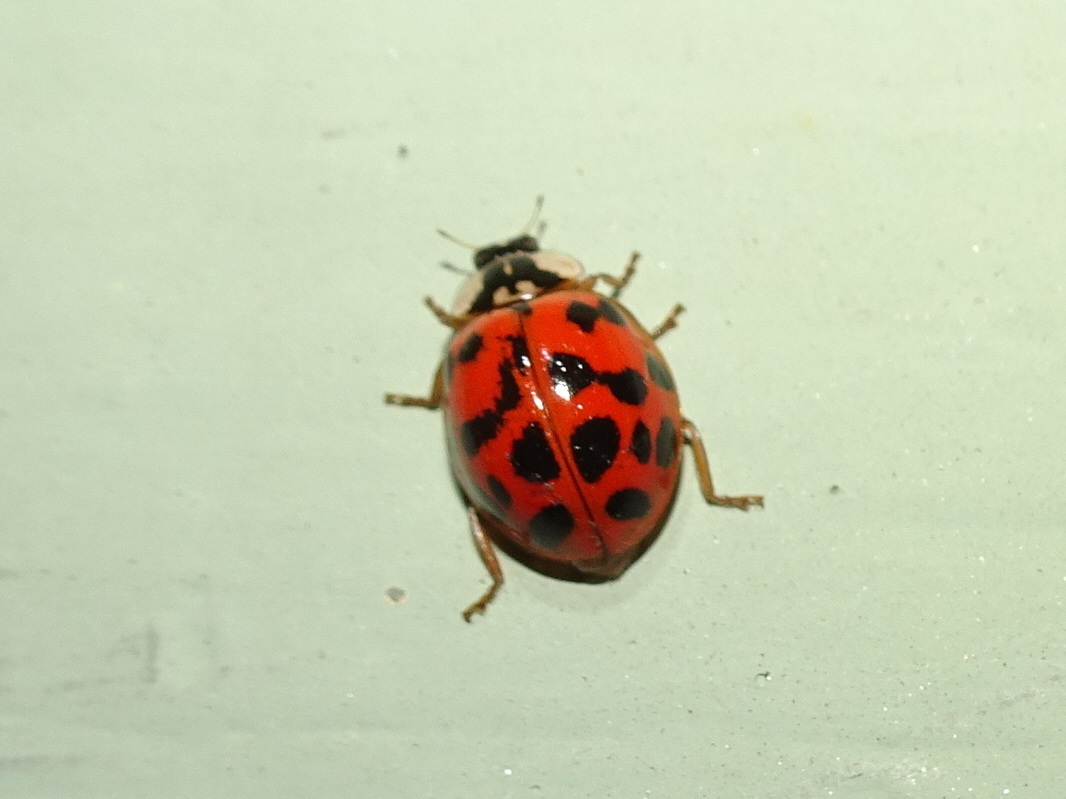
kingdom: Animalia
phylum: Arthropoda
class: Insecta
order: Coleoptera
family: Coccinellidae
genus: Harmonia
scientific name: Harmonia axyridis
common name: Harlequin ladybird
